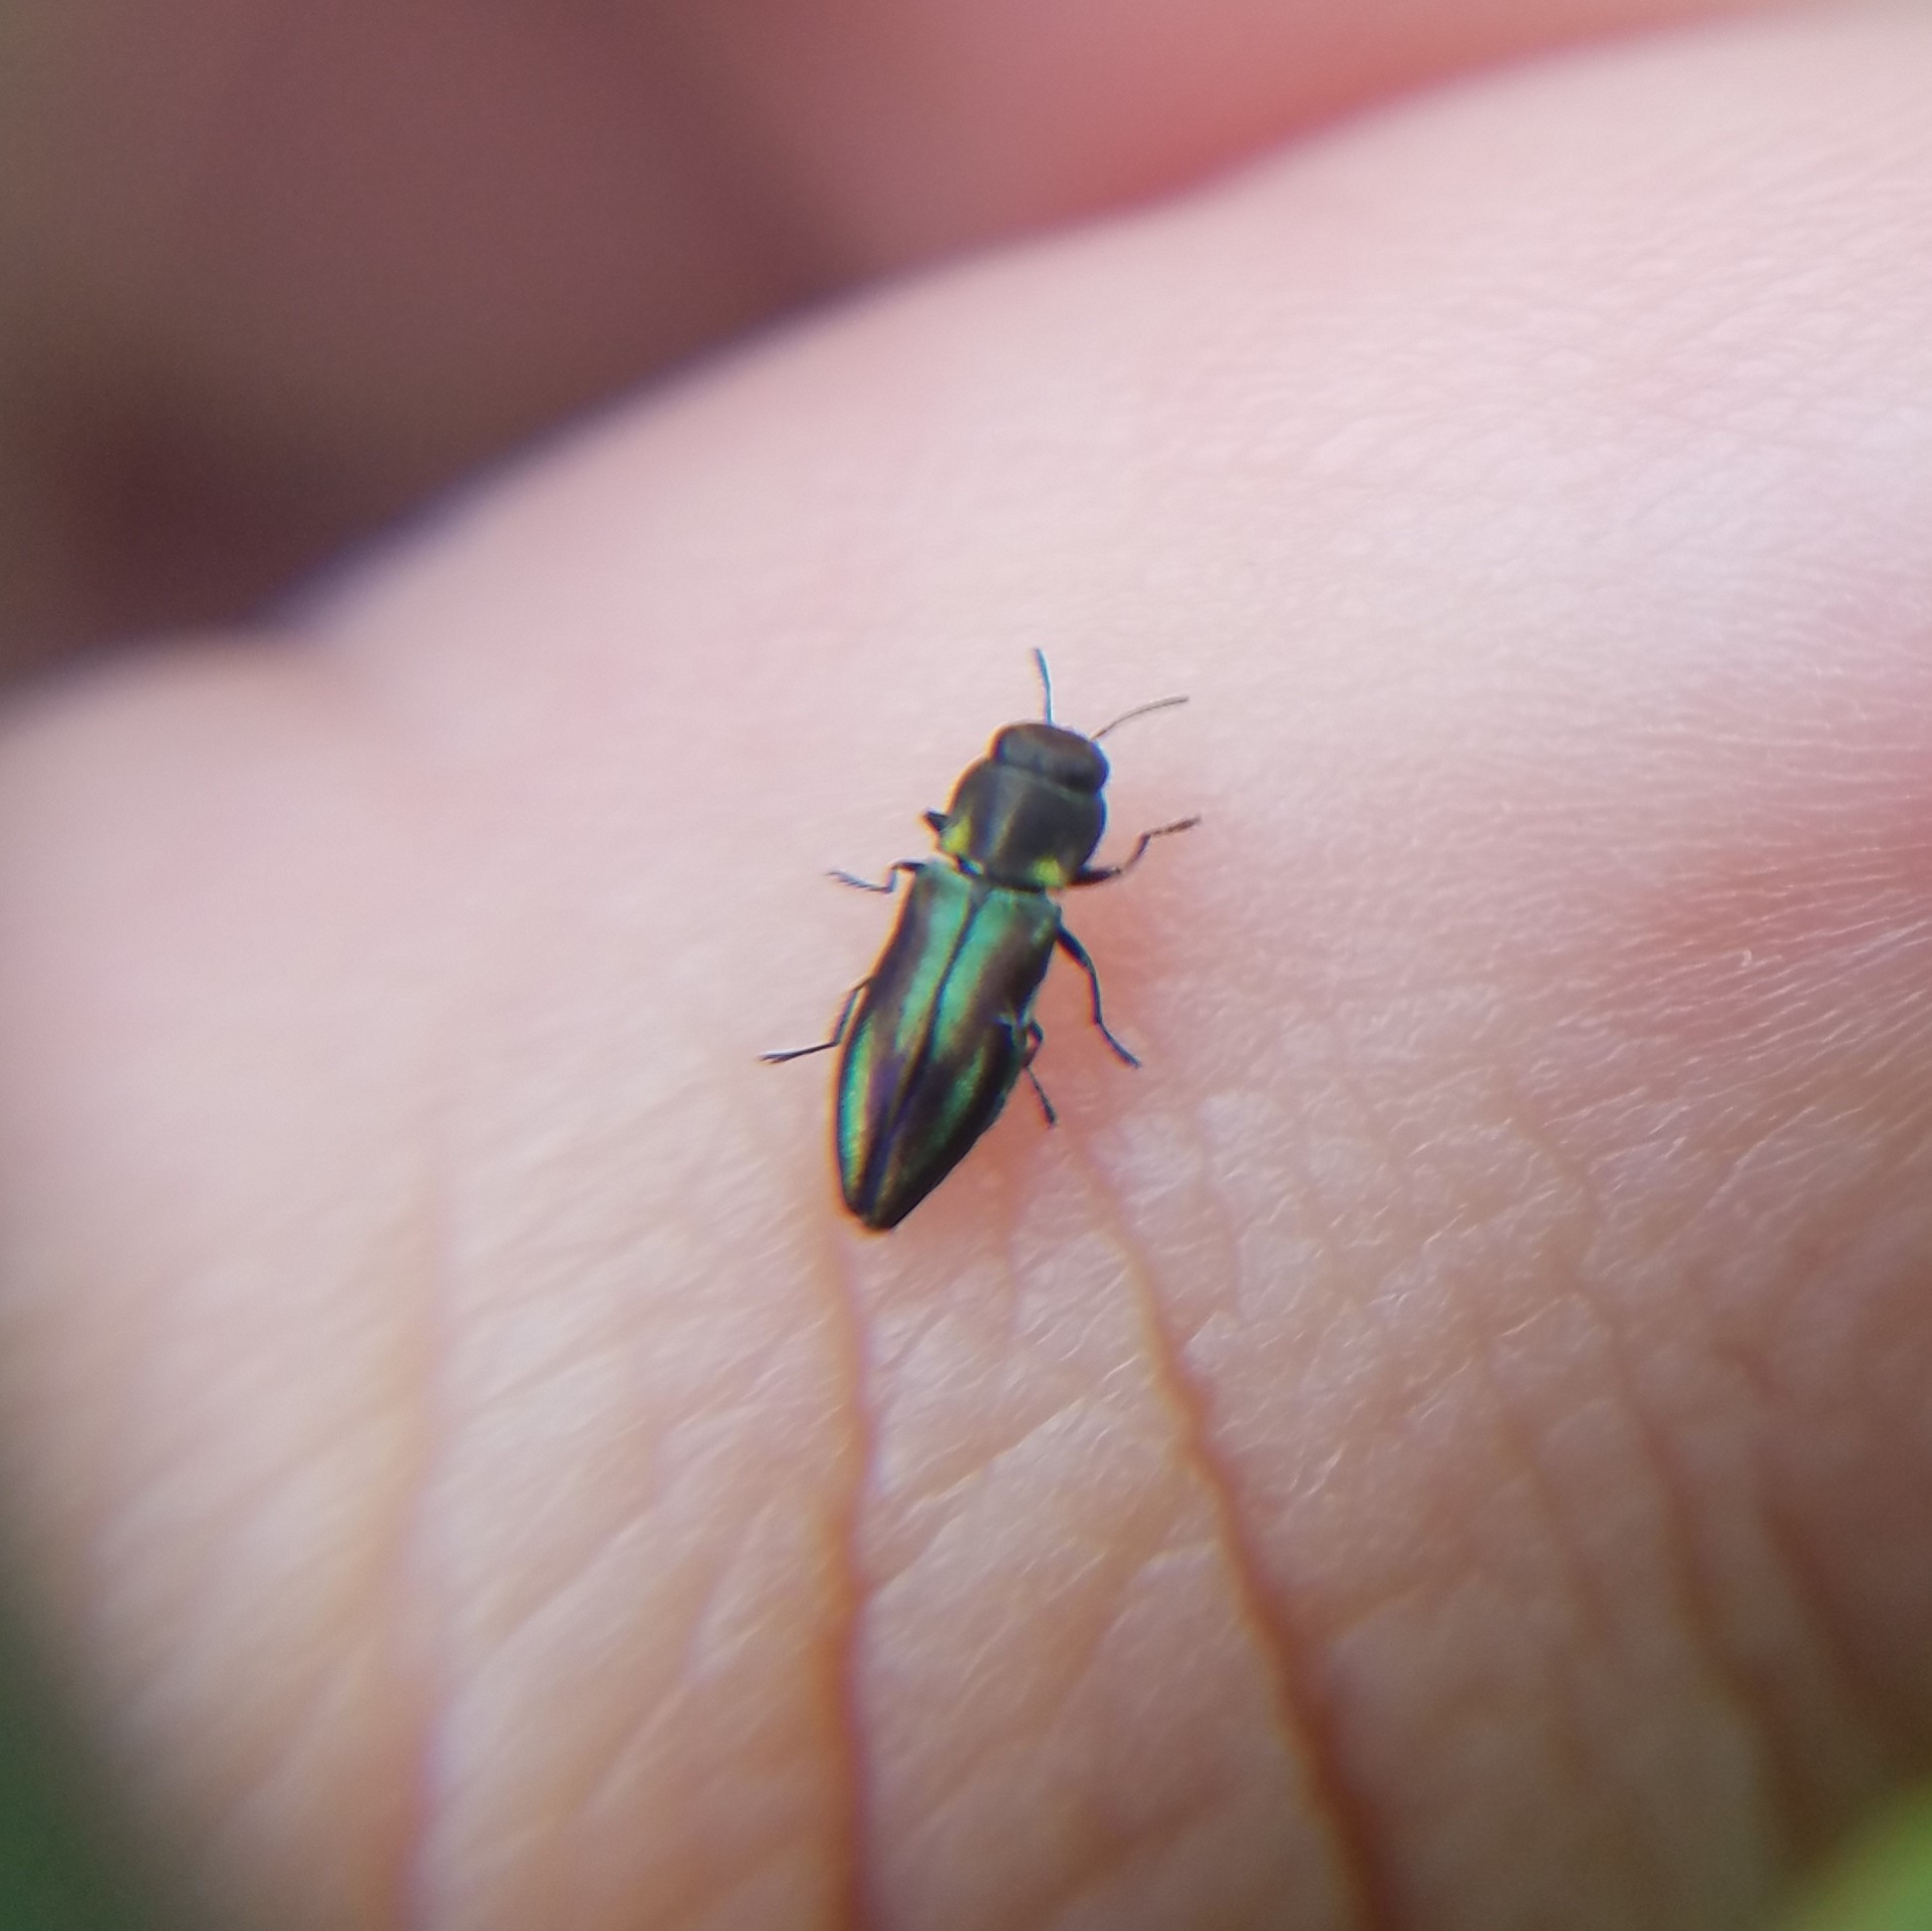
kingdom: Animalia
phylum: Arthropoda
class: Insecta
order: Coleoptera
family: Buprestidae
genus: Anthaxia
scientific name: Anthaxia quercata
